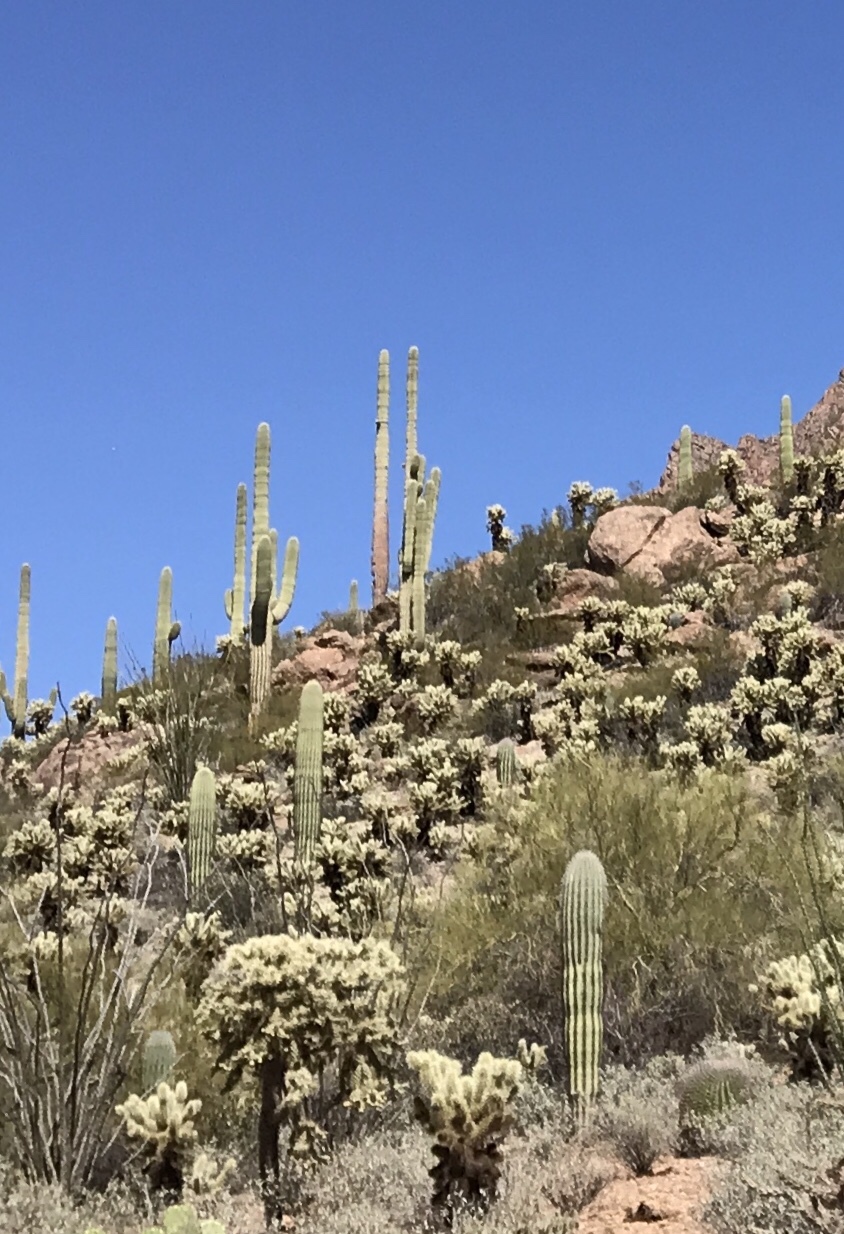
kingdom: Plantae
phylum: Tracheophyta
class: Magnoliopsida
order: Caryophyllales
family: Cactaceae
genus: Carnegiea
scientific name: Carnegiea gigantea
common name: Saguaro
